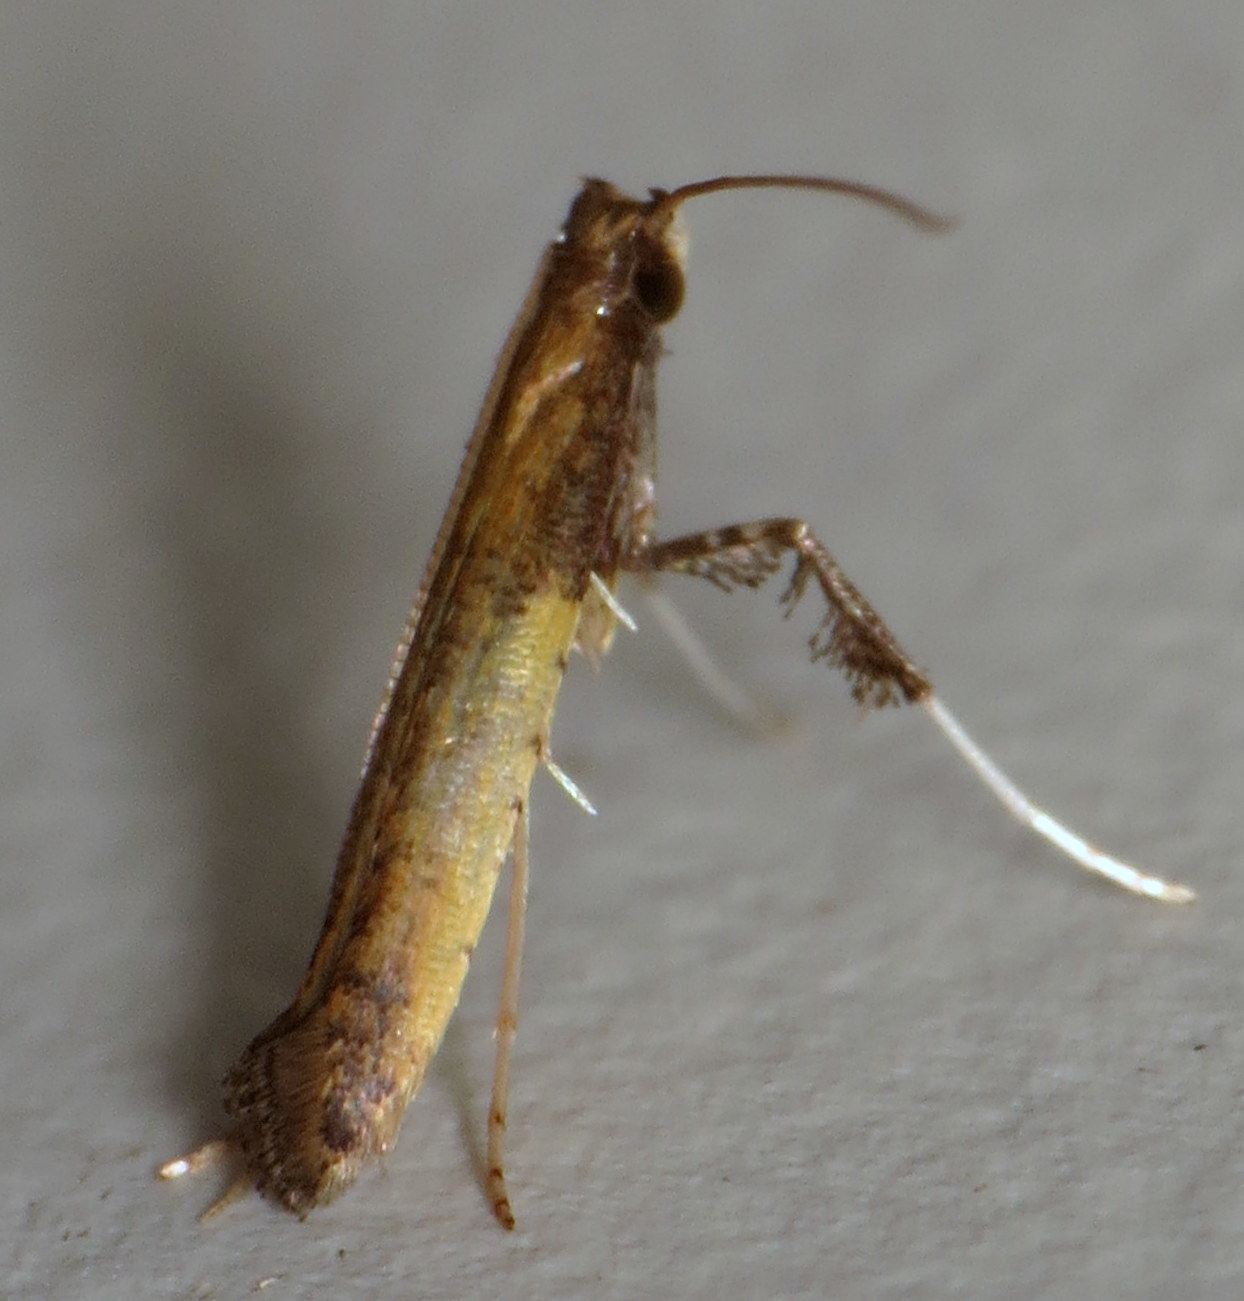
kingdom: Animalia
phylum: Arthropoda
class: Insecta
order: Lepidoptera
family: Gracillariidae
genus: Caloptilia
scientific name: Caloptilia azaleella
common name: Azalea leafminer
